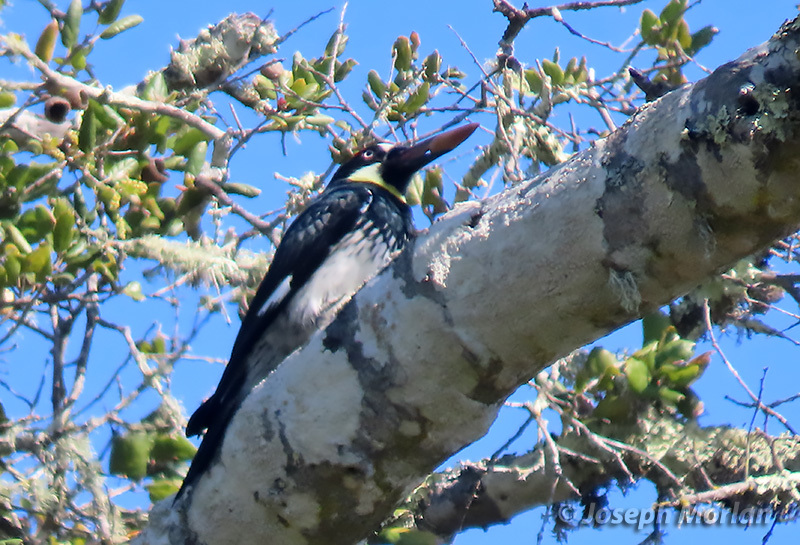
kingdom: Animalia
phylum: Chordata
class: Aves
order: Piciformes
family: Picidae
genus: Melanerpes
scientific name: Melanerpes formicivorus
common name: Acorn woodpecker
